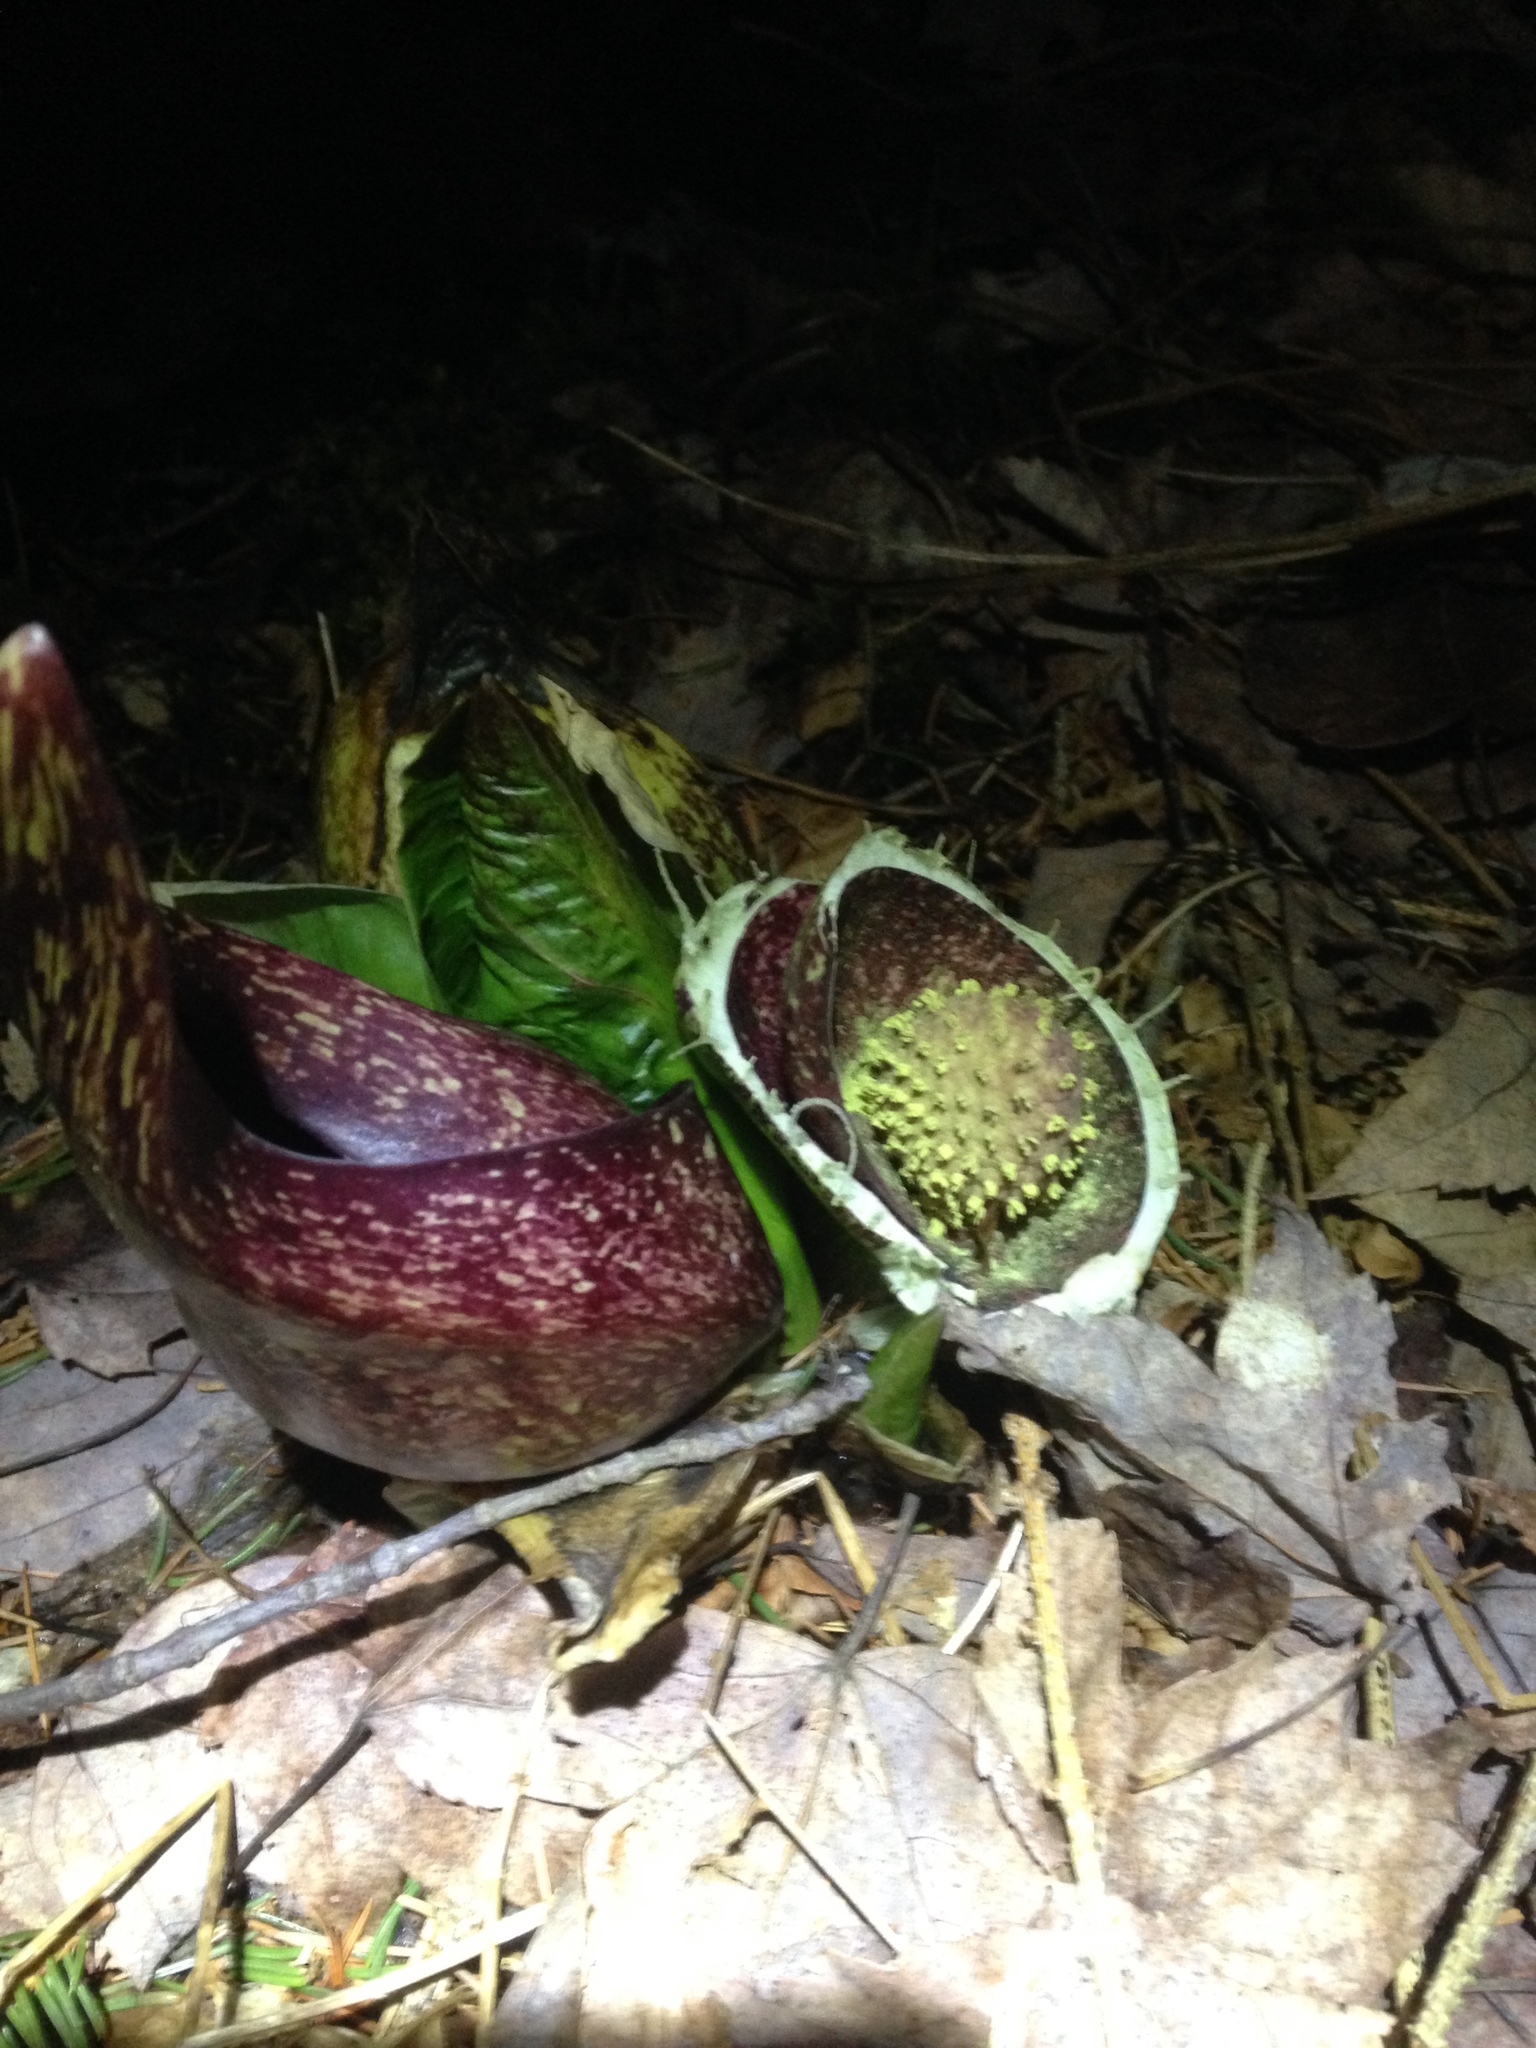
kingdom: Plantae
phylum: Tracheophyta
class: Liliopsida
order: Alismatales
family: Araceae
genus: Symplocarpus
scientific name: Symplocarpus foetidus
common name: Eastern skunk cabbage
